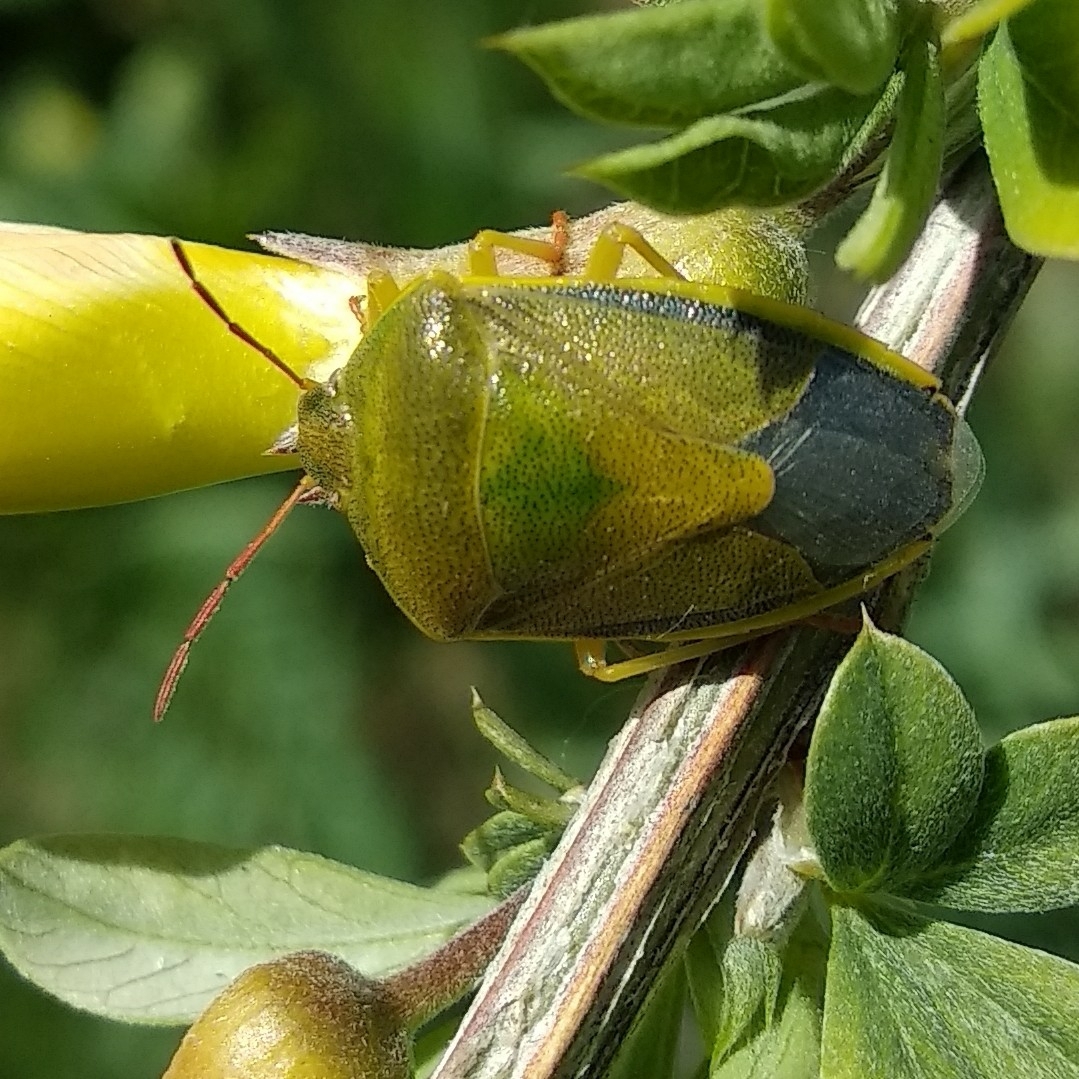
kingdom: Animalia
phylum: Arthropoda
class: Insecta
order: Hemiptera
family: Pentatomidae
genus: Piezodorus
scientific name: Piezodorus lituratus
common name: Stink bug
